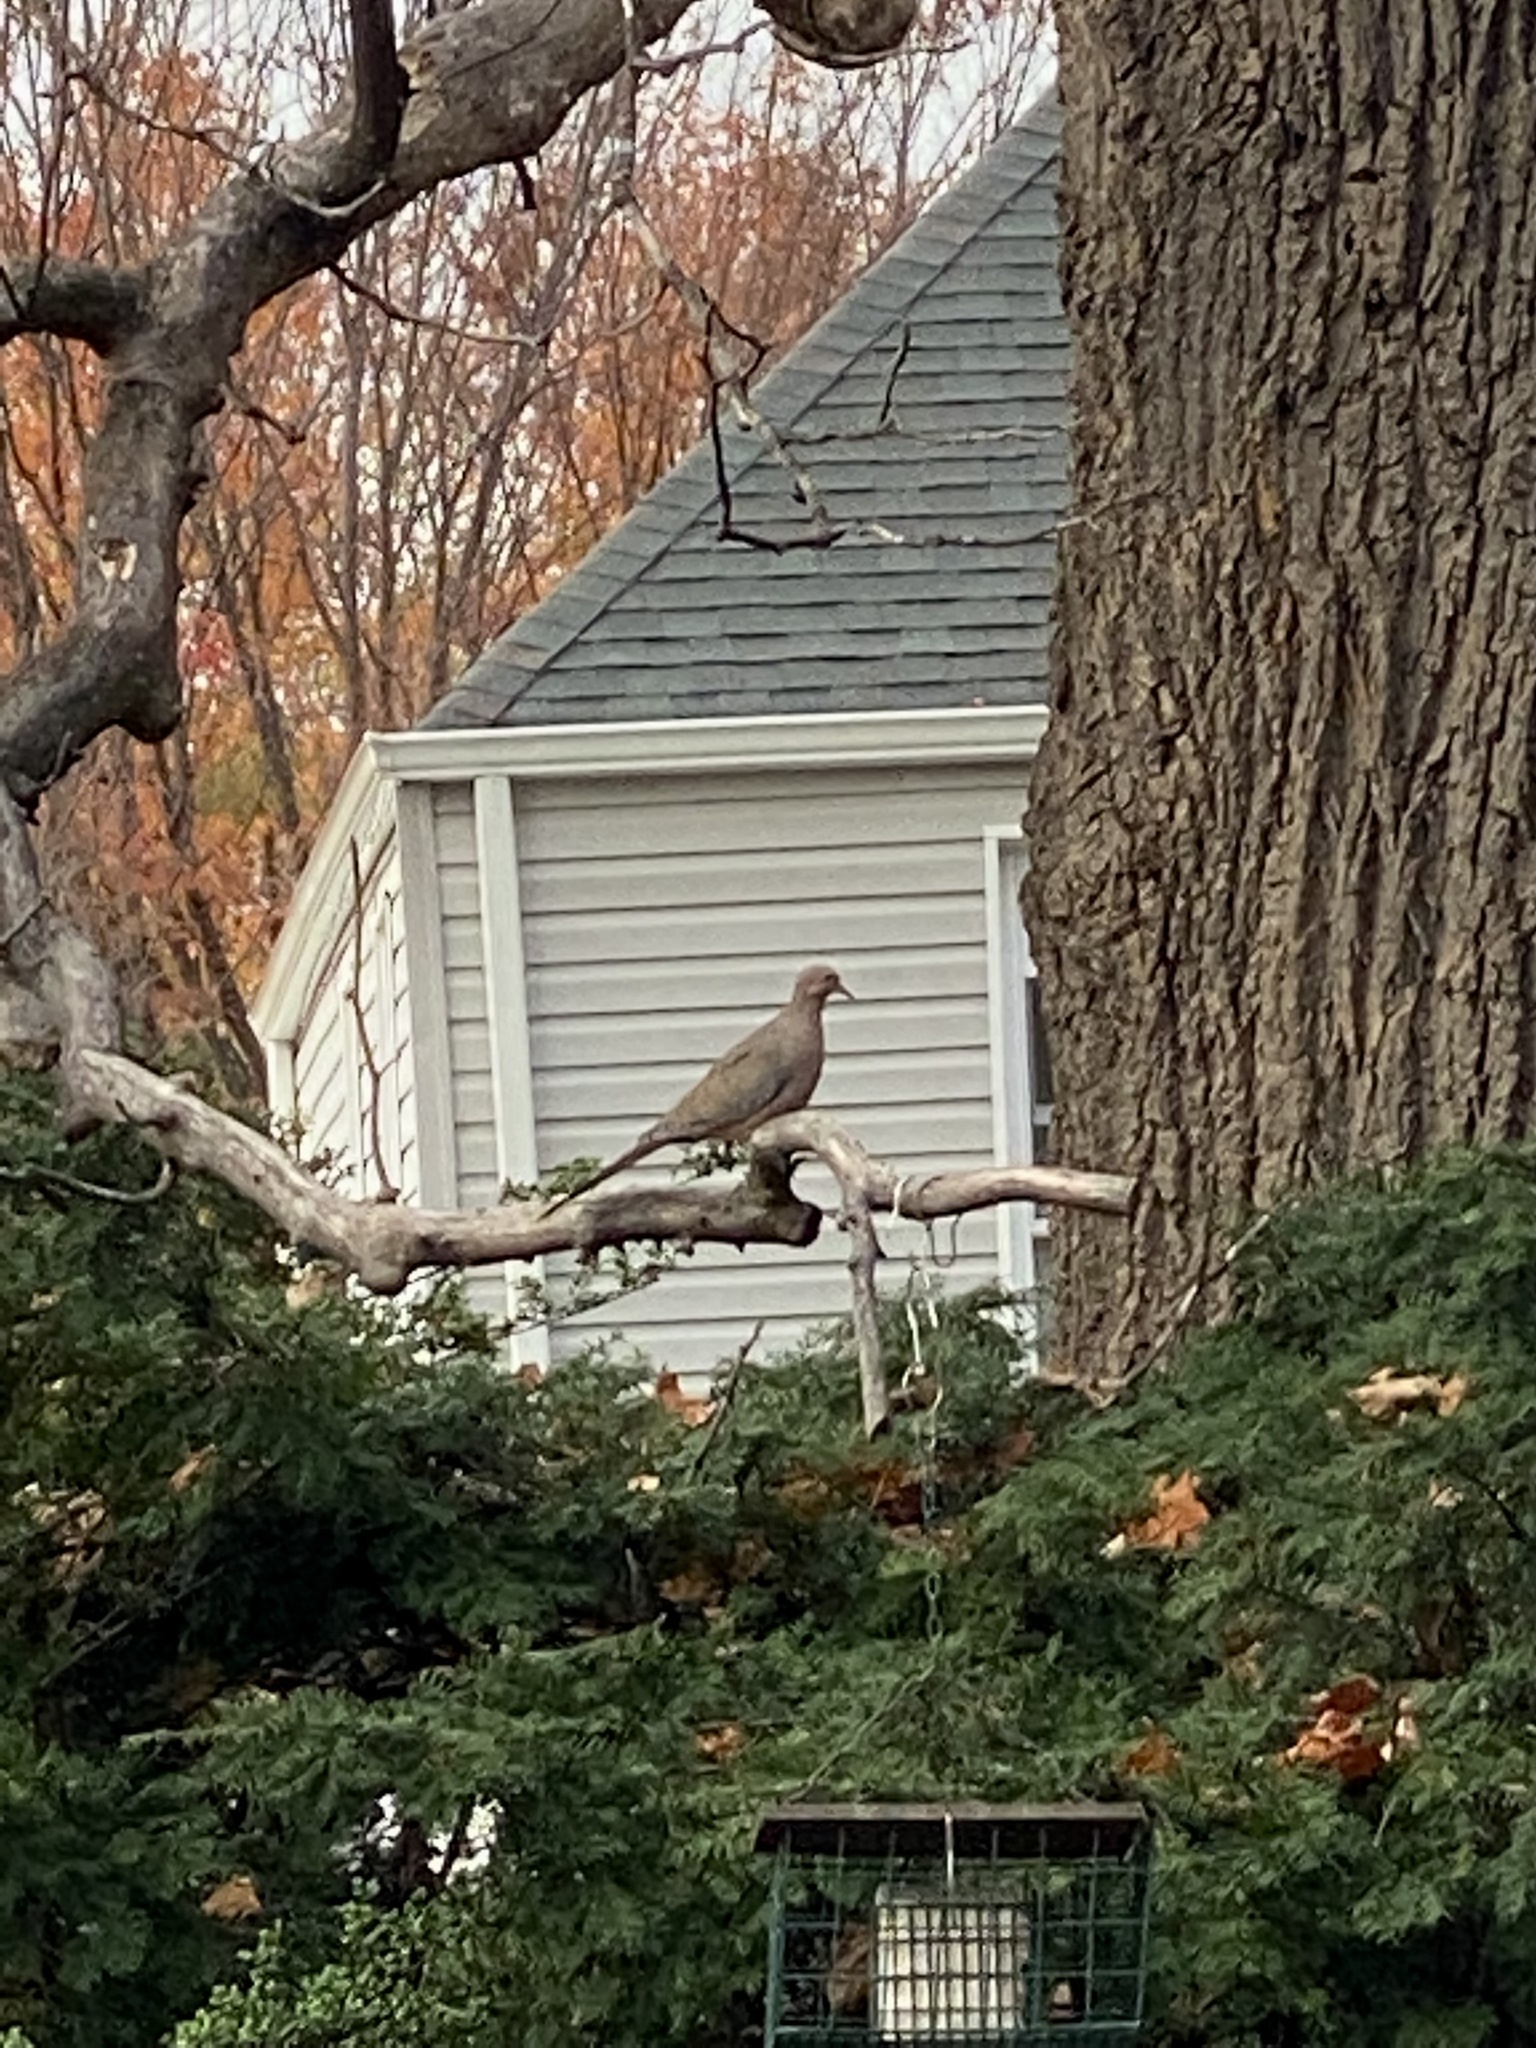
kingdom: Animalia
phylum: Chordata
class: Aves
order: Columbiformes
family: Columbidae
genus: Zenaida
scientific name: Zenaida macroura
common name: Mourning dove
